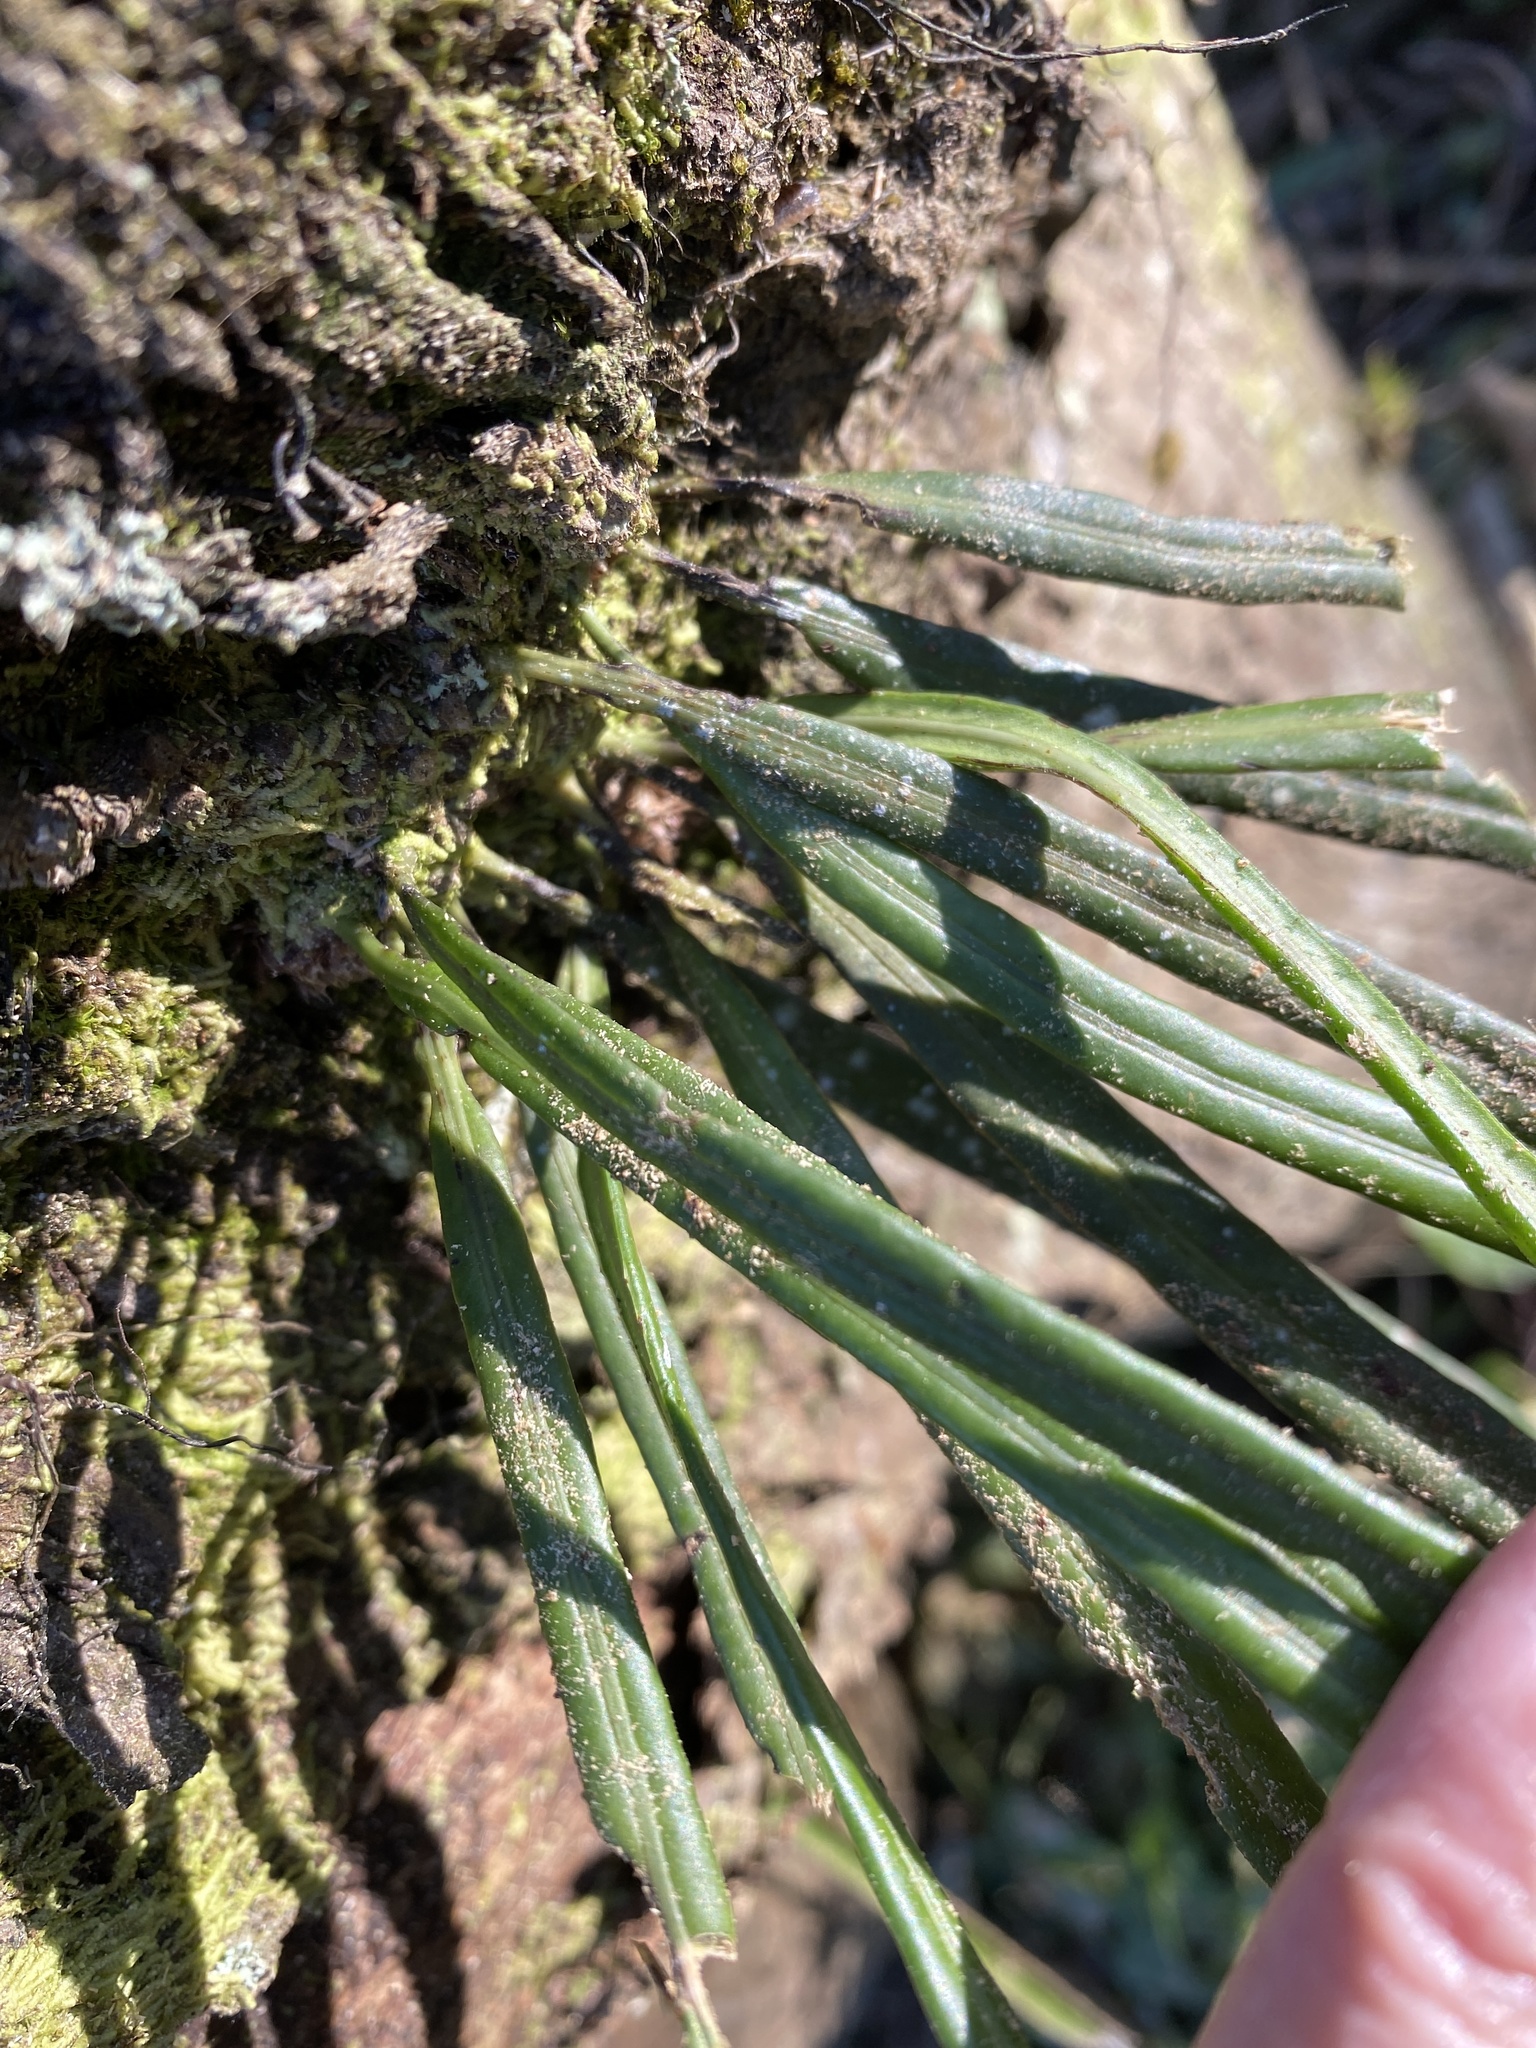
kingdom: Plantae
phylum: Tracheophyta
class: Polypodiopsida
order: Polypodiales
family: Polypodiaceae
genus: Campyloneurum
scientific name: Campyloneurum angustifolium
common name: Narrow-leaf strap fern
